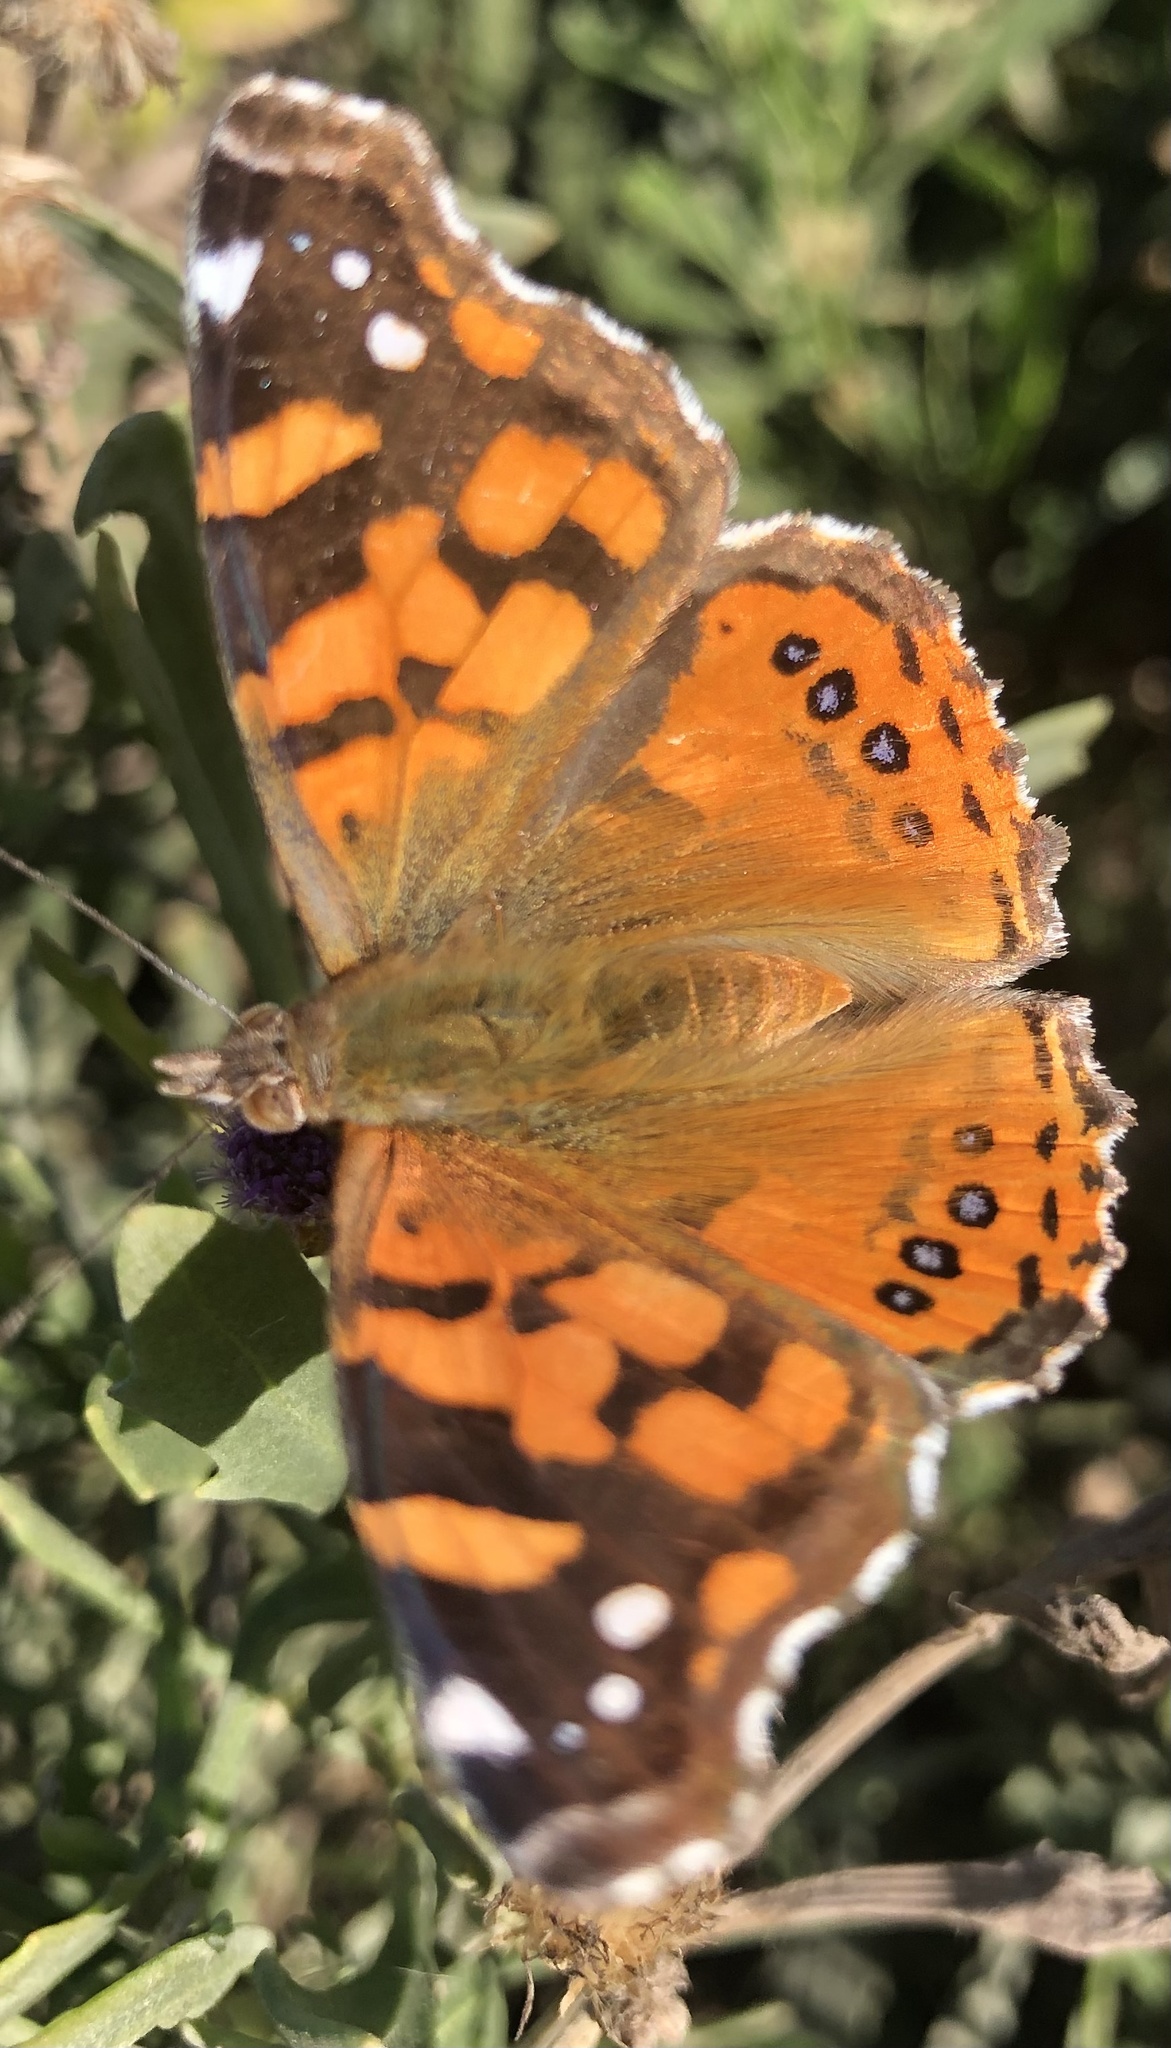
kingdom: Animalia
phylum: Arthropoda
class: Insecta
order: Lepidoptera
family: Nymphalidae
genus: Vanessa
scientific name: Vanessa carye
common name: Subtropical lady
